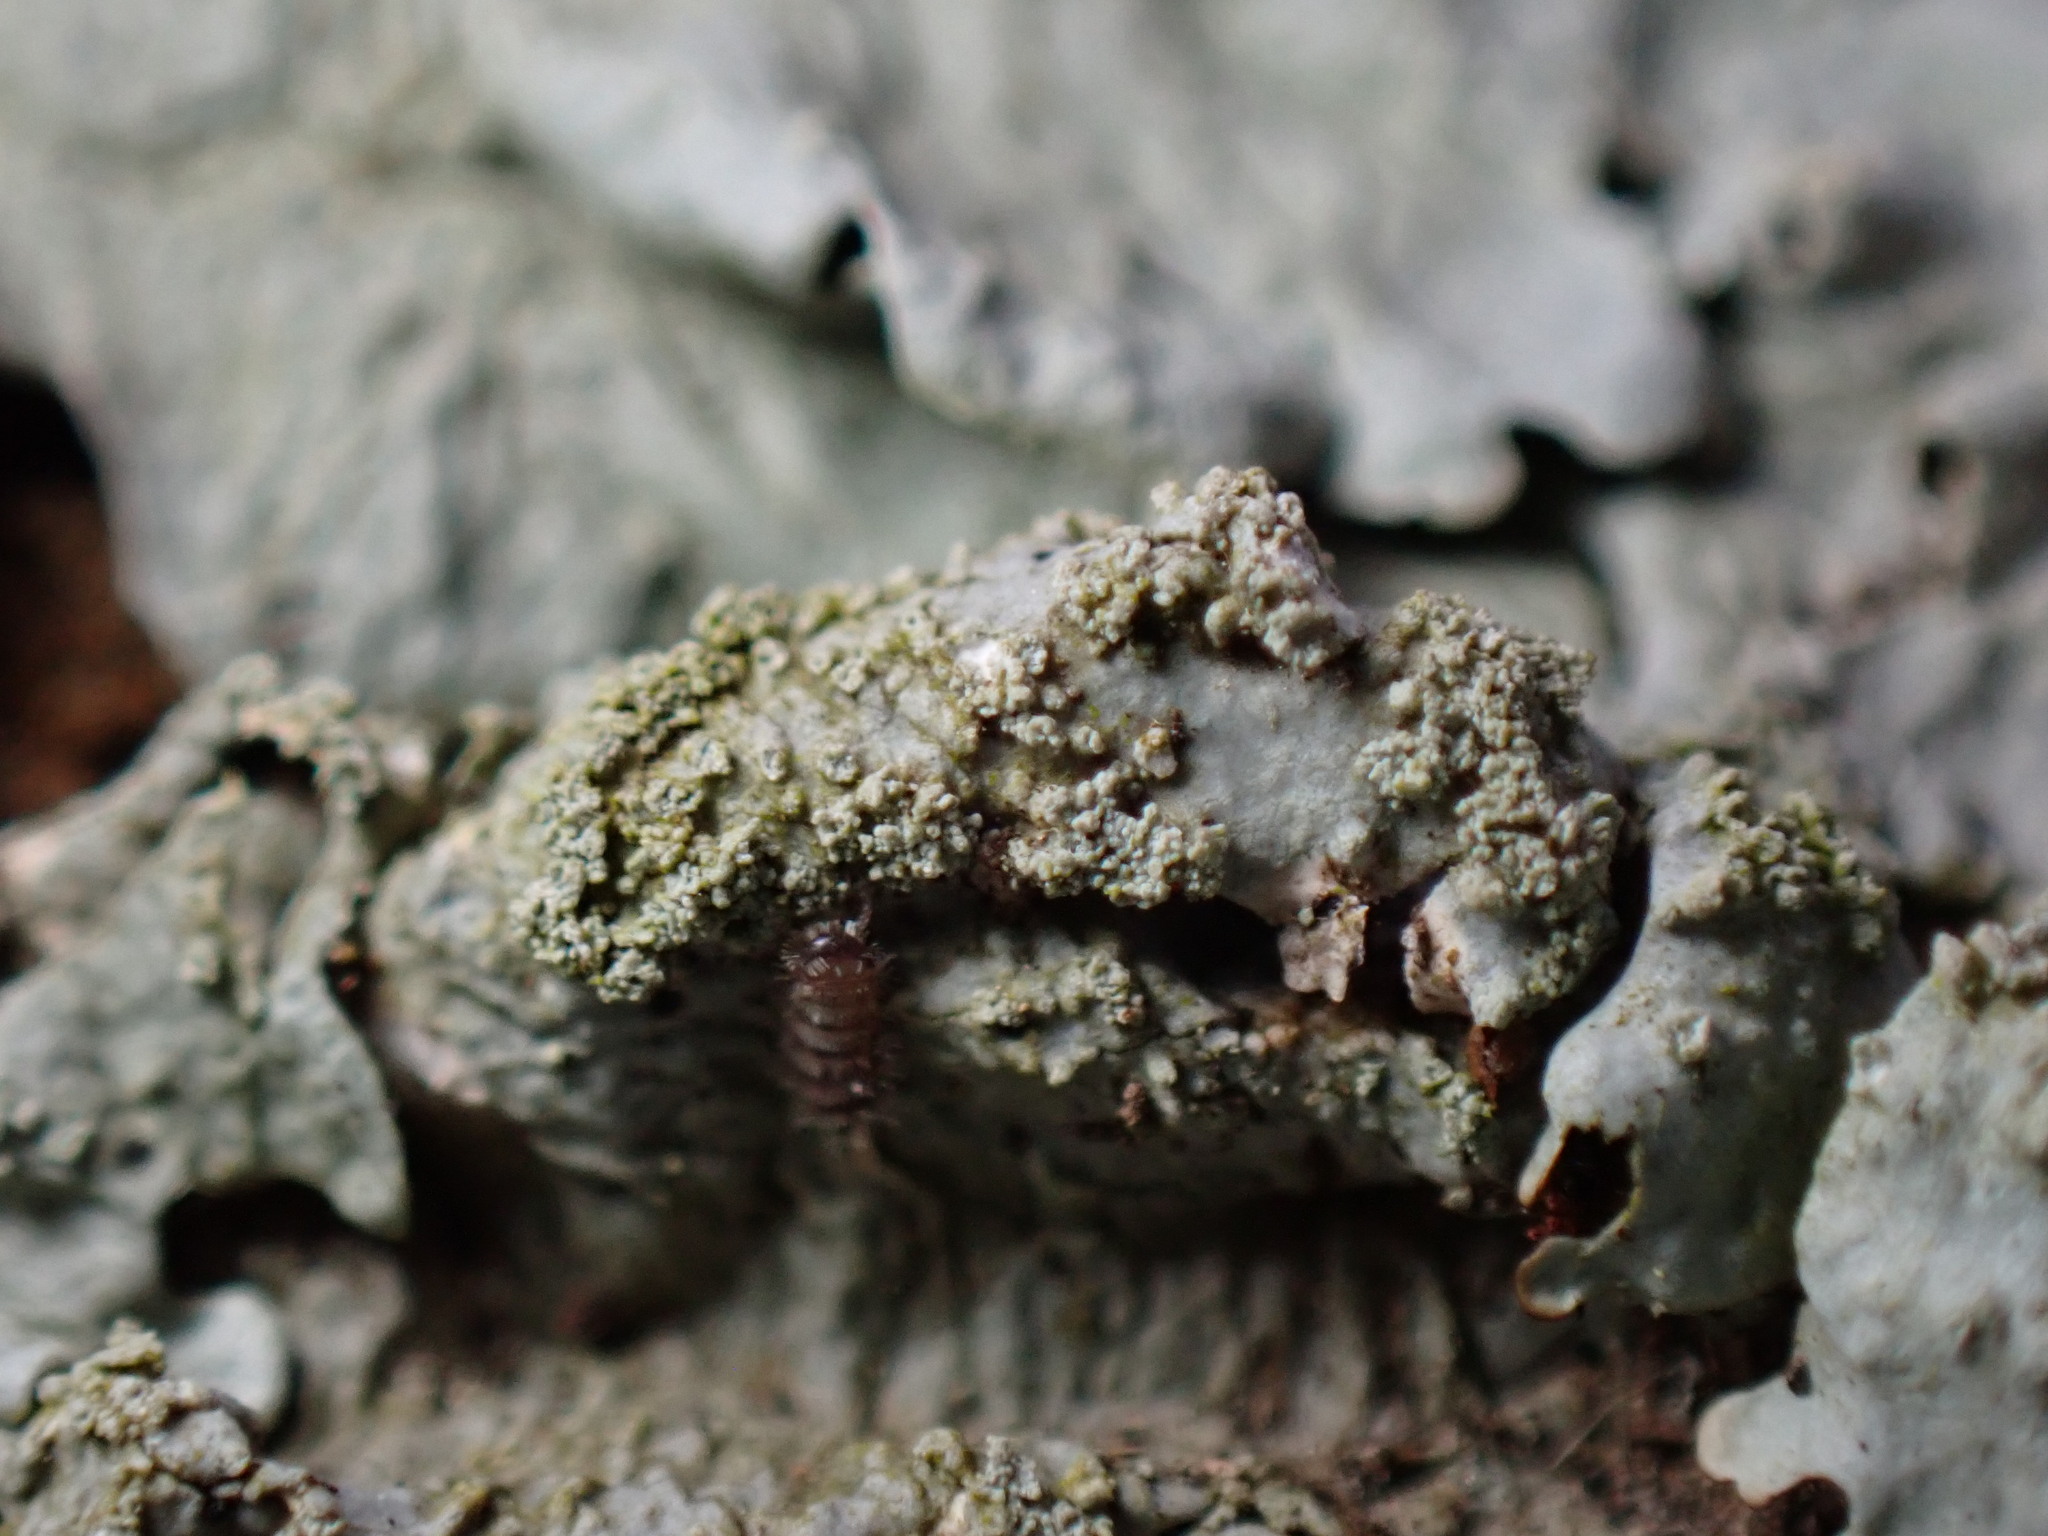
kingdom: Animalia
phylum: Arthropoda
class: Diplopoda
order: Polyxenida
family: Polyxenidae
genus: Polyxenus
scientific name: Polyxenus lagurus
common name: Bristly millipede
